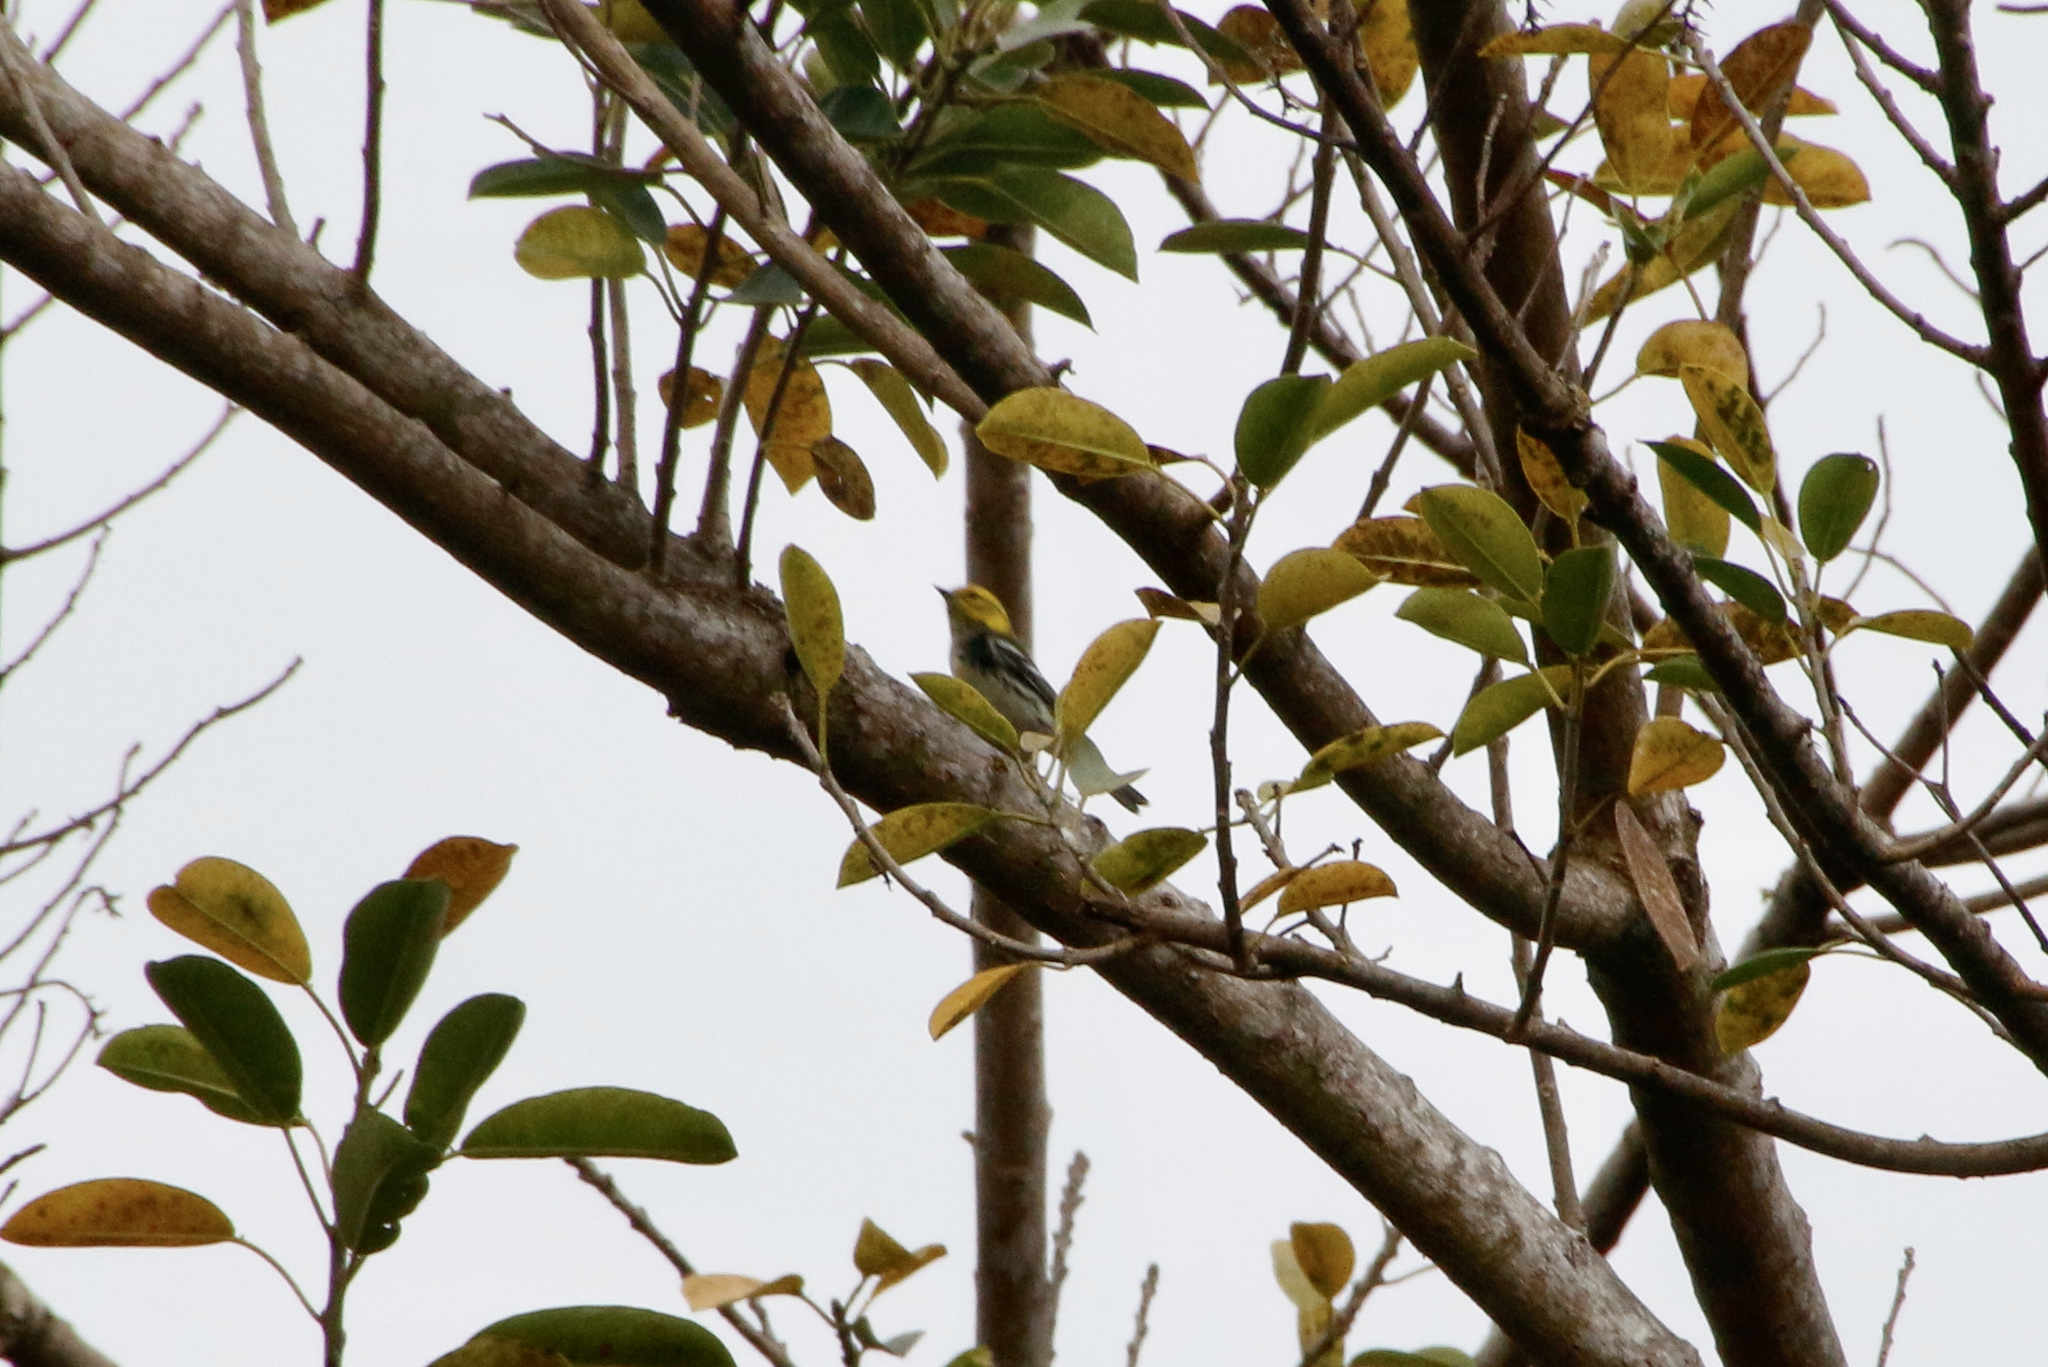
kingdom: Animalia
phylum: Chordata
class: Aves
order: Passeriformes
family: Parulidae
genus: Setophaga
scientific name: Setophaga virens
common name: Black-throated green warbler
